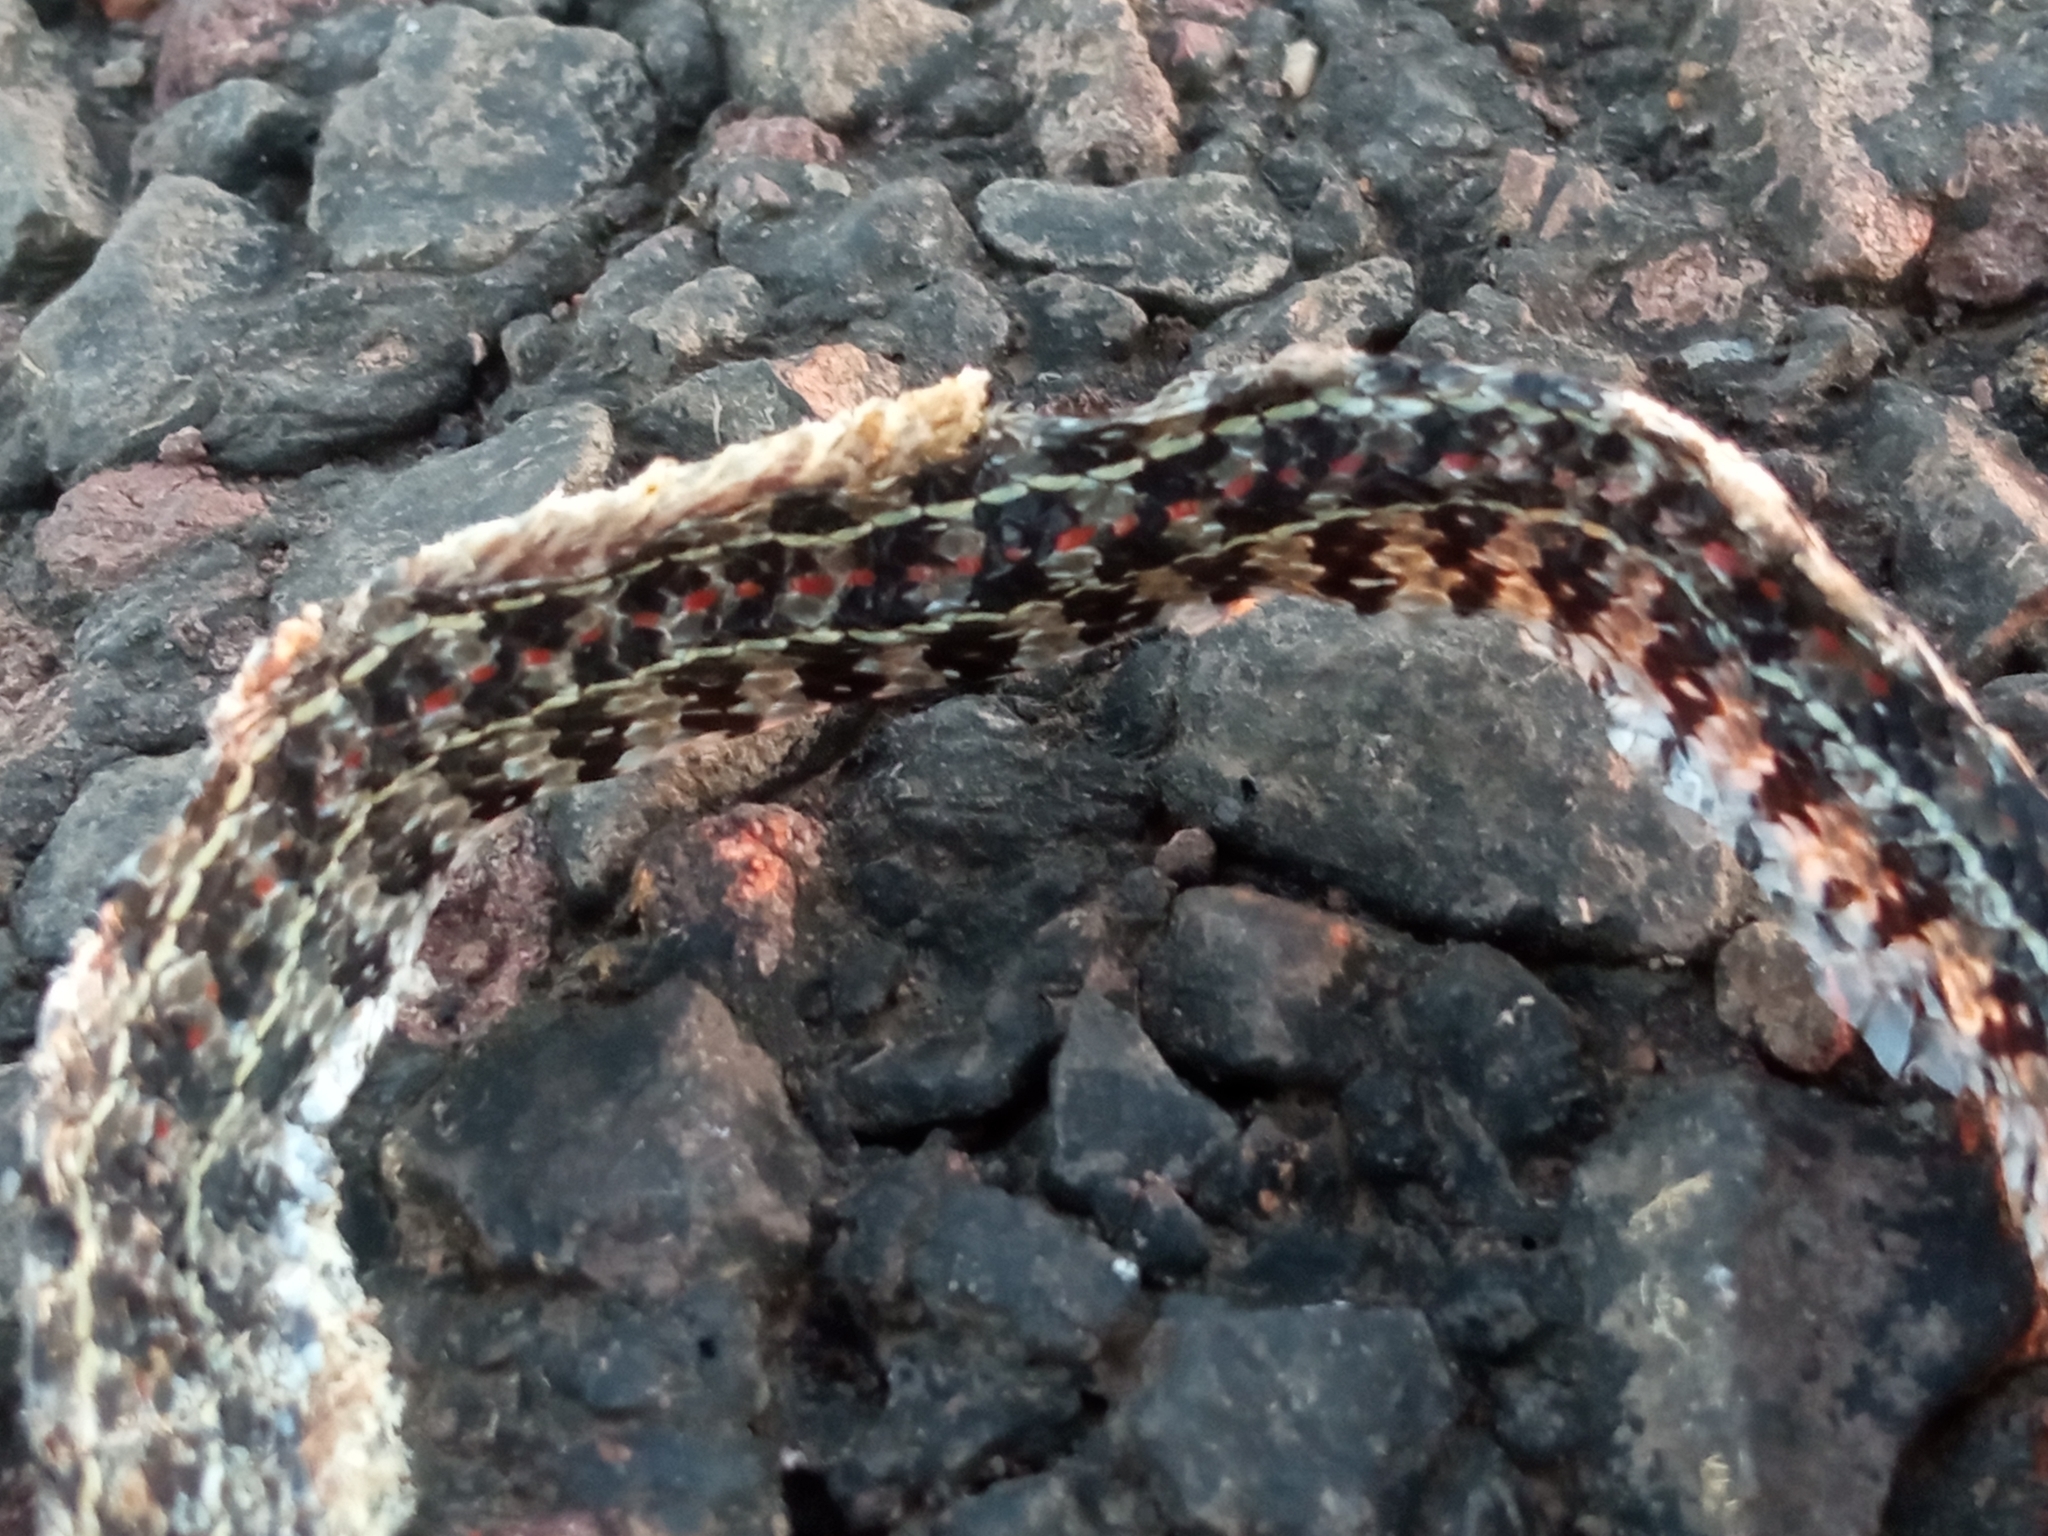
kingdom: Animalia
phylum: Chordata
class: Squamata
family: Colubridae
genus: Lygophis
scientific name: Lygophis anomalus
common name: English common name not available
